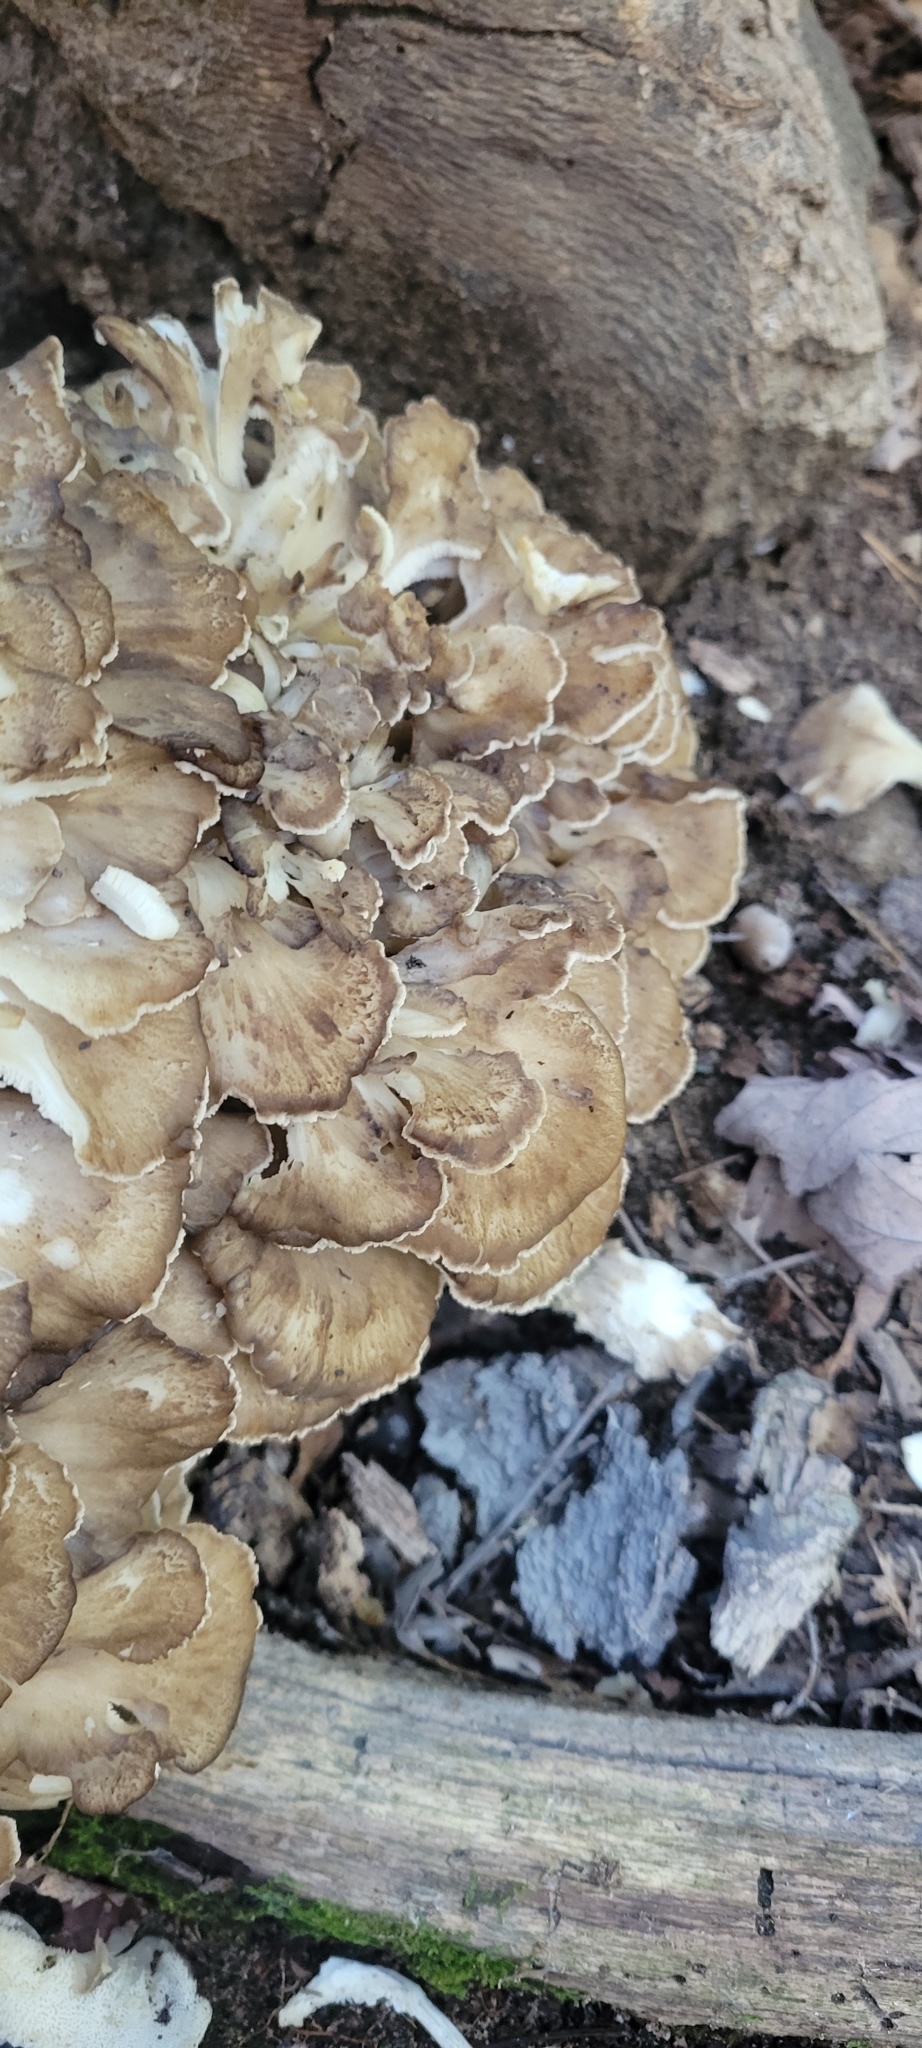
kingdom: Fungi
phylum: Basidiomycota
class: Agaricomycetes
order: Polyporales
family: Grifolaceae
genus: Grifola
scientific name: Grifola frondosa
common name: Hen of the woods
